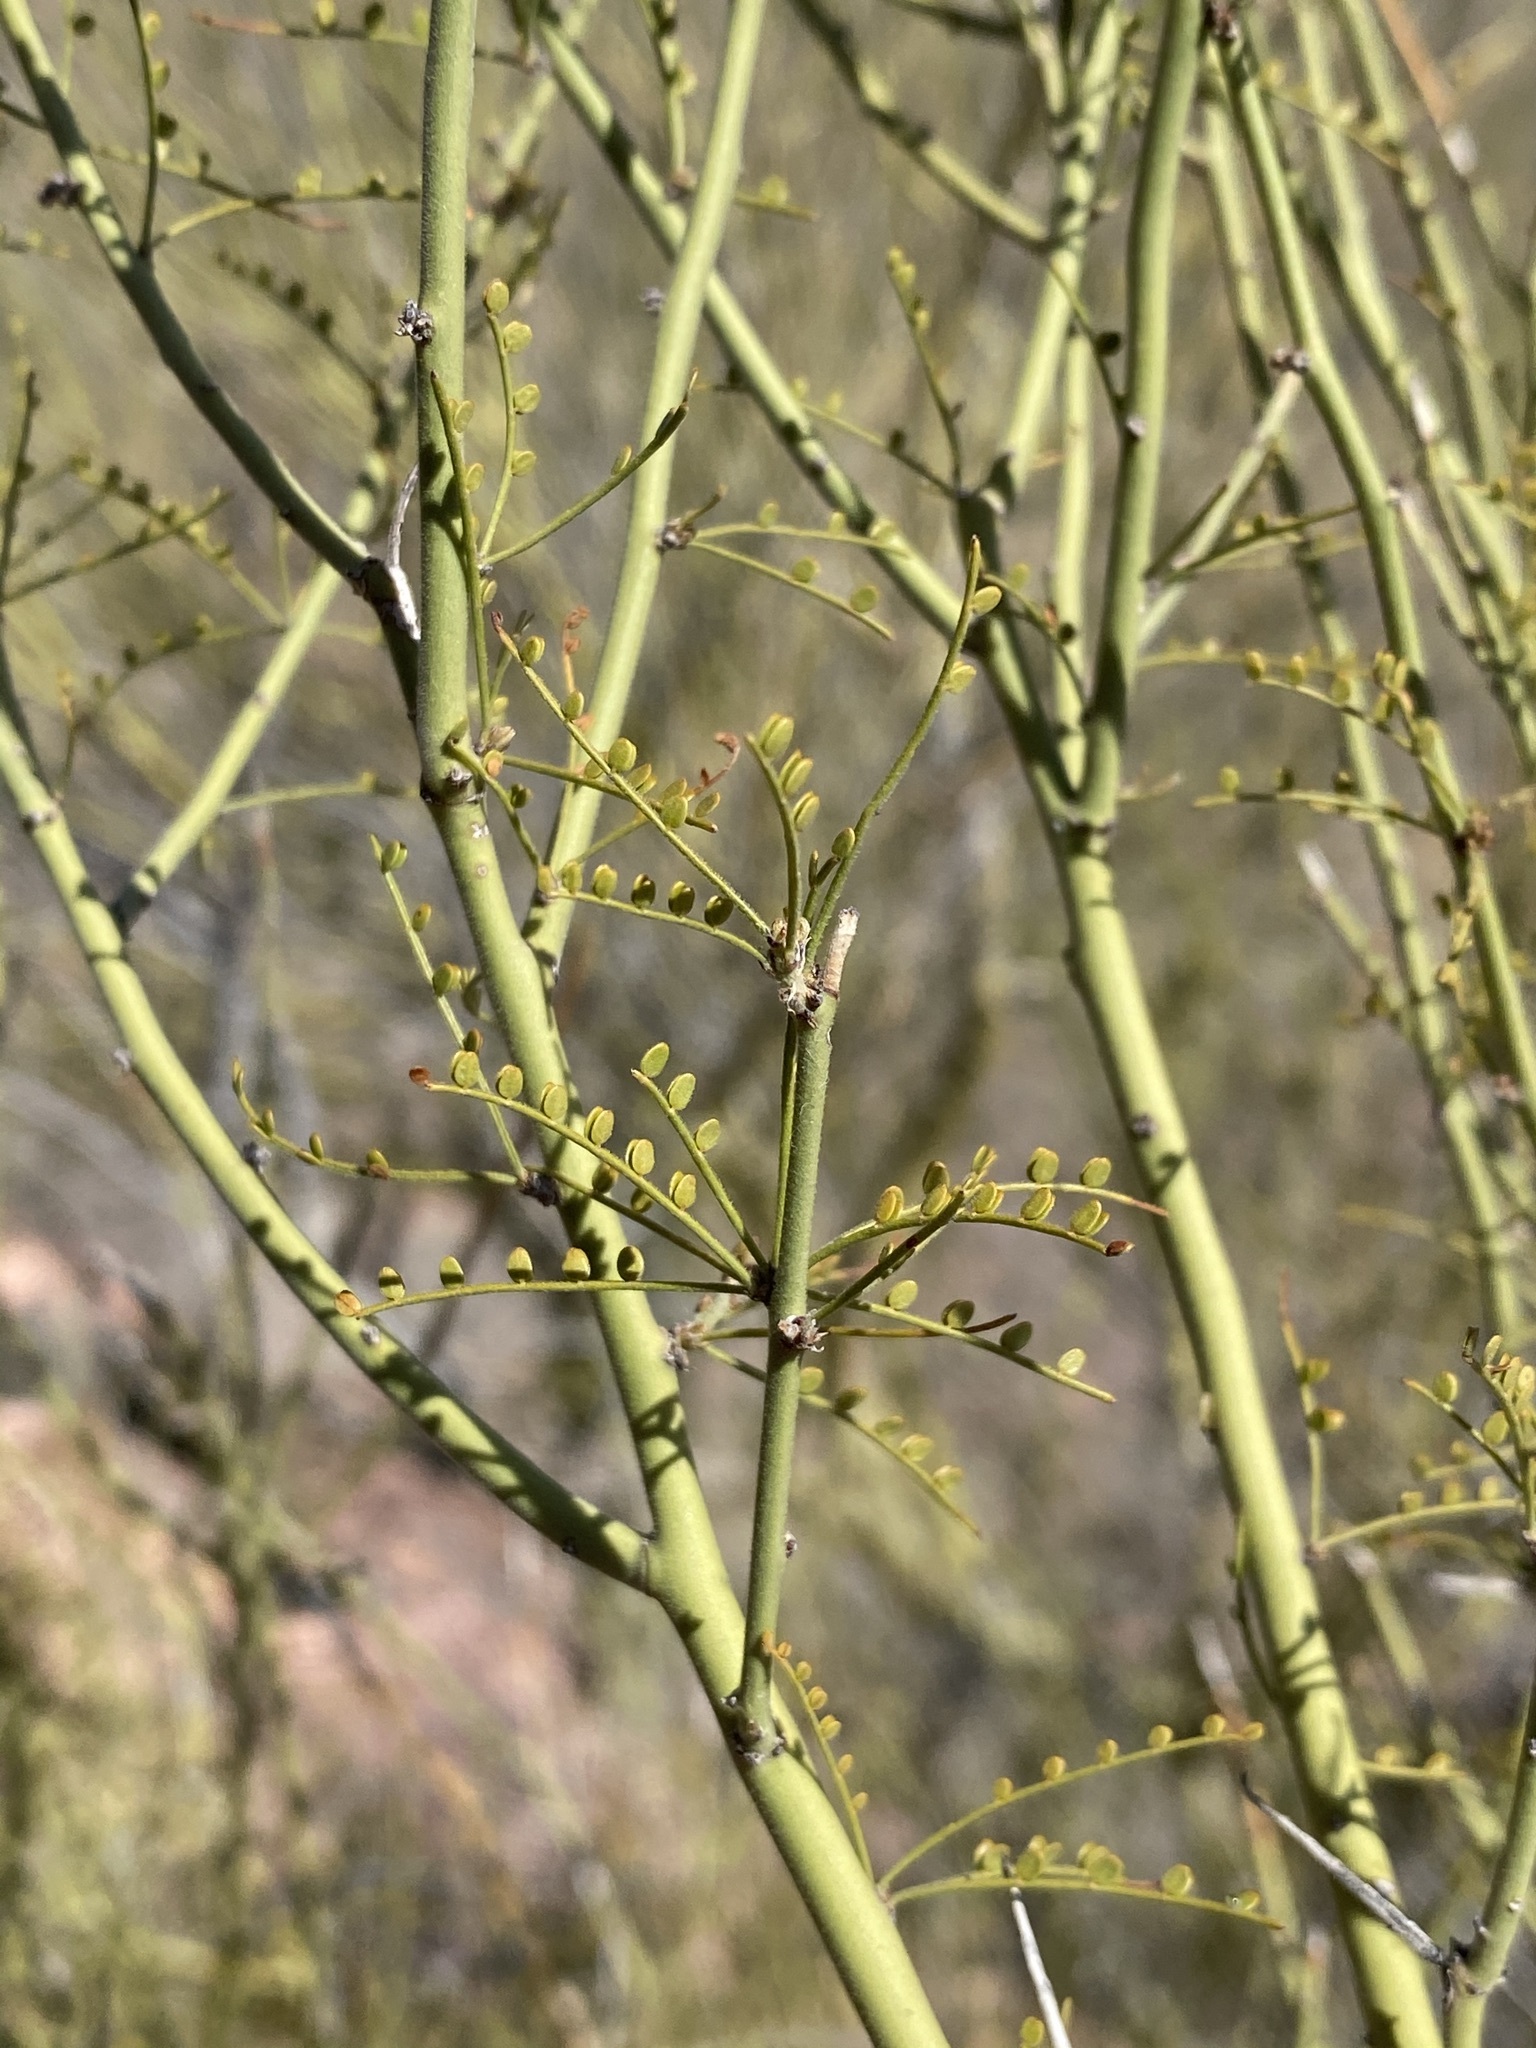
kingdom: Plantae
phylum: Tracheophyta
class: Magnoliopsida
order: Fabales
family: Fabaceae
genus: Parkinsonia
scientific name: Parkinsonia microphylla
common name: Yellow paloverde
